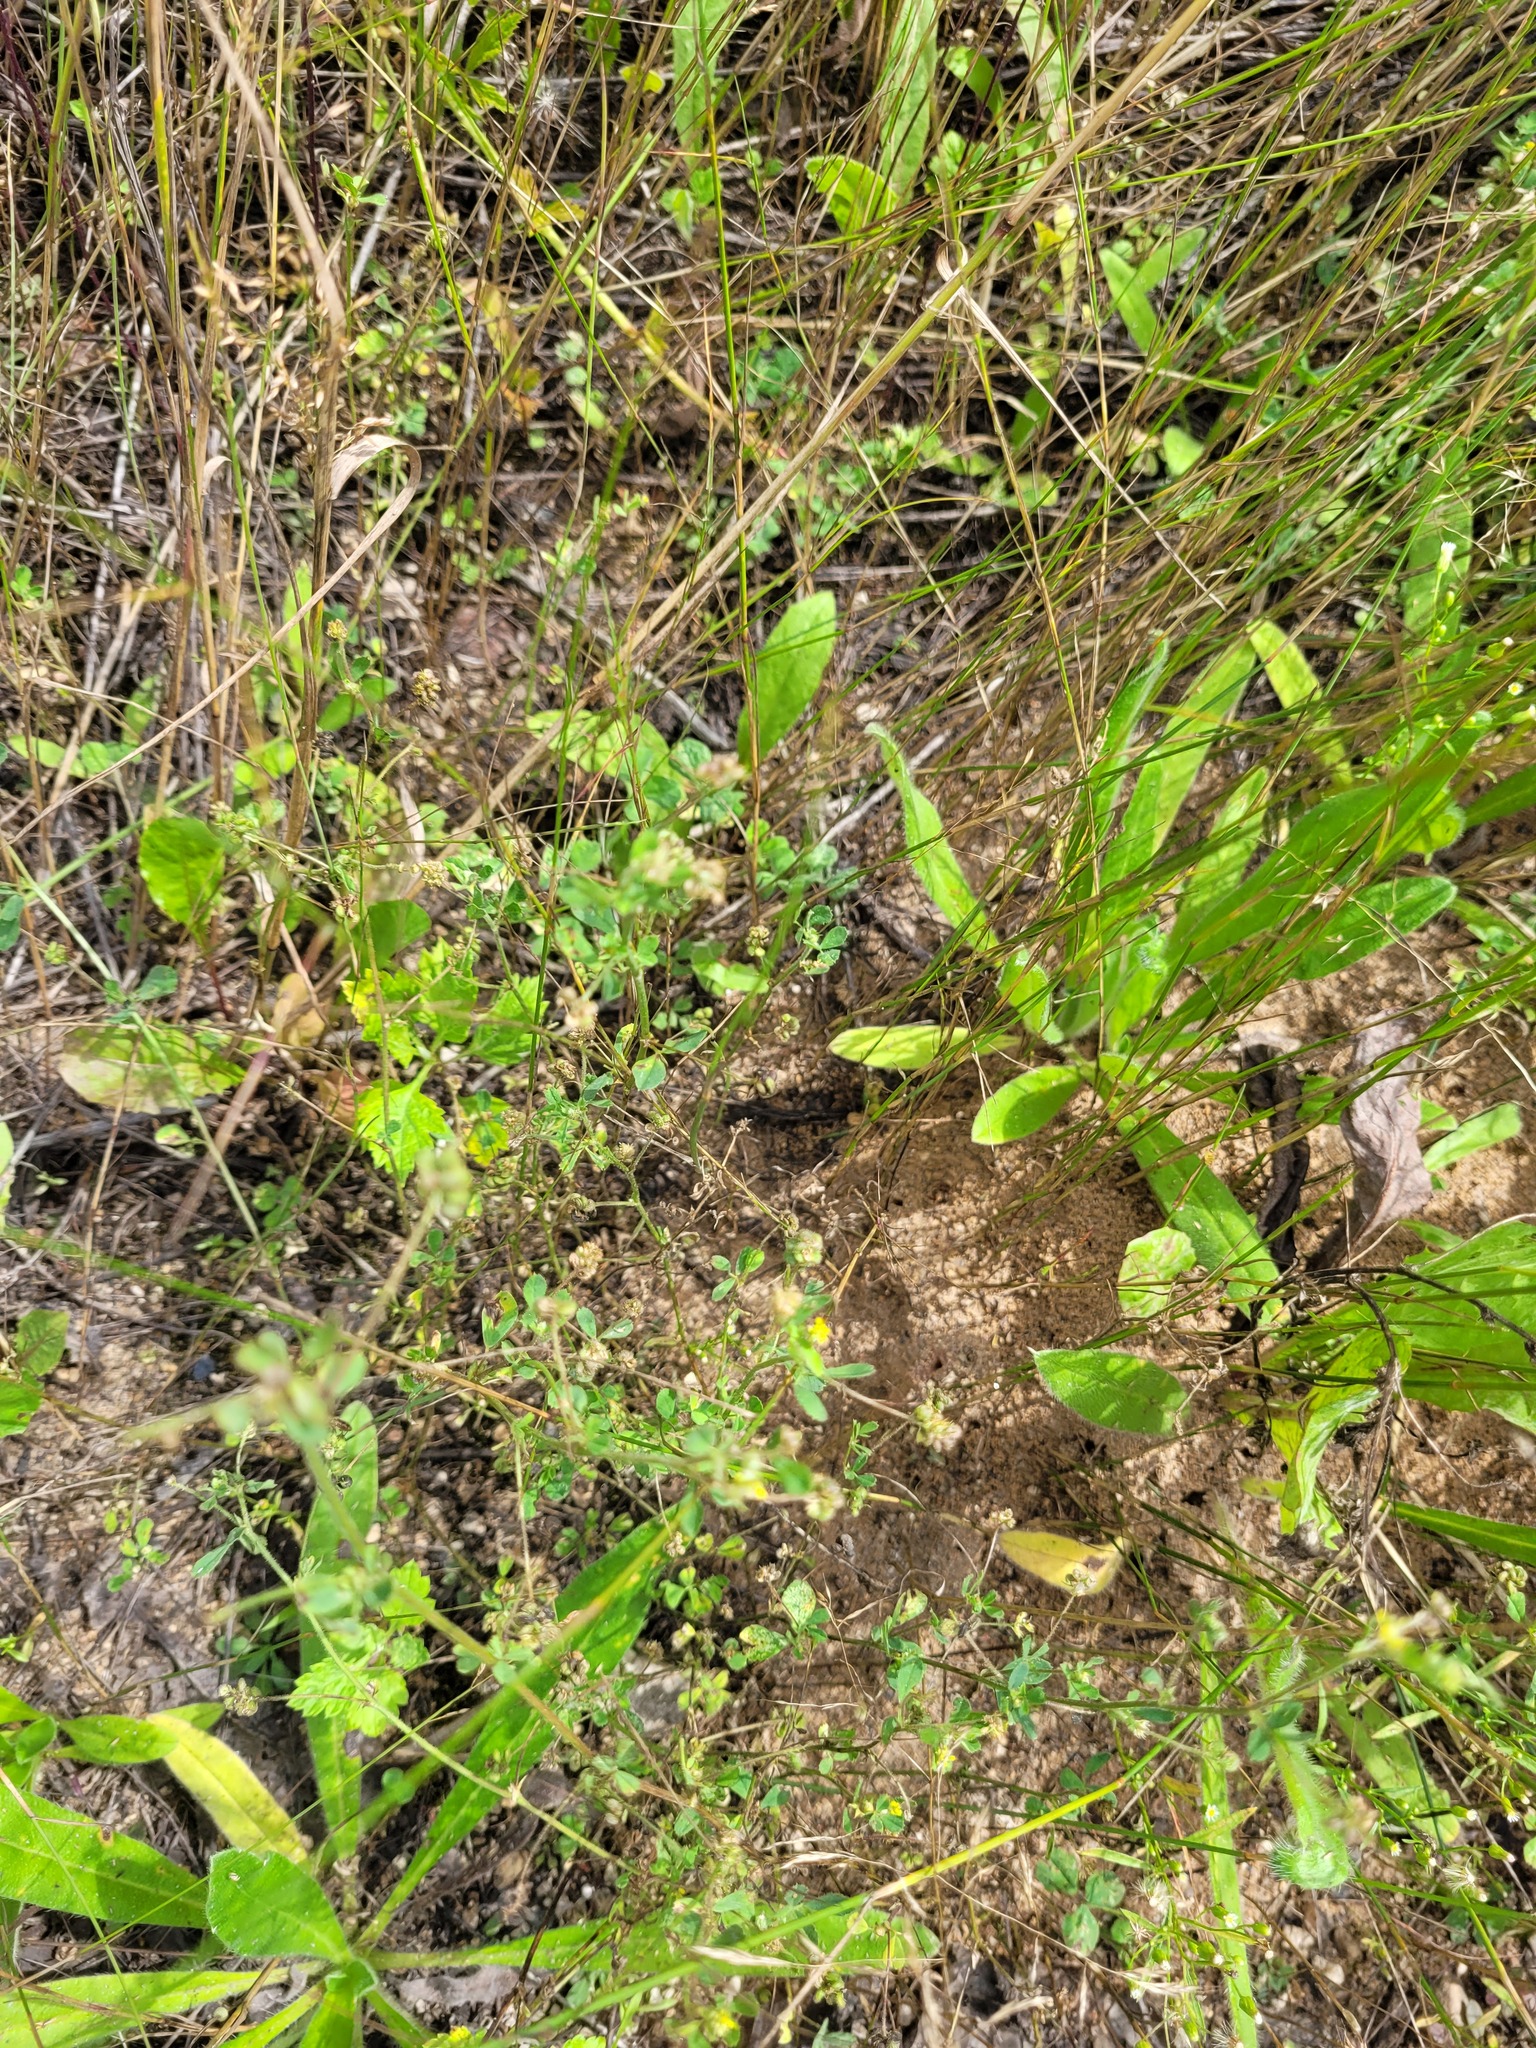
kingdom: Plantae
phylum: Tracheophyta
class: Magnoliopsida
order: Fabales
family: Fabaceae
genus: Medicago
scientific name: Medicago lupulina
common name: Black medick
